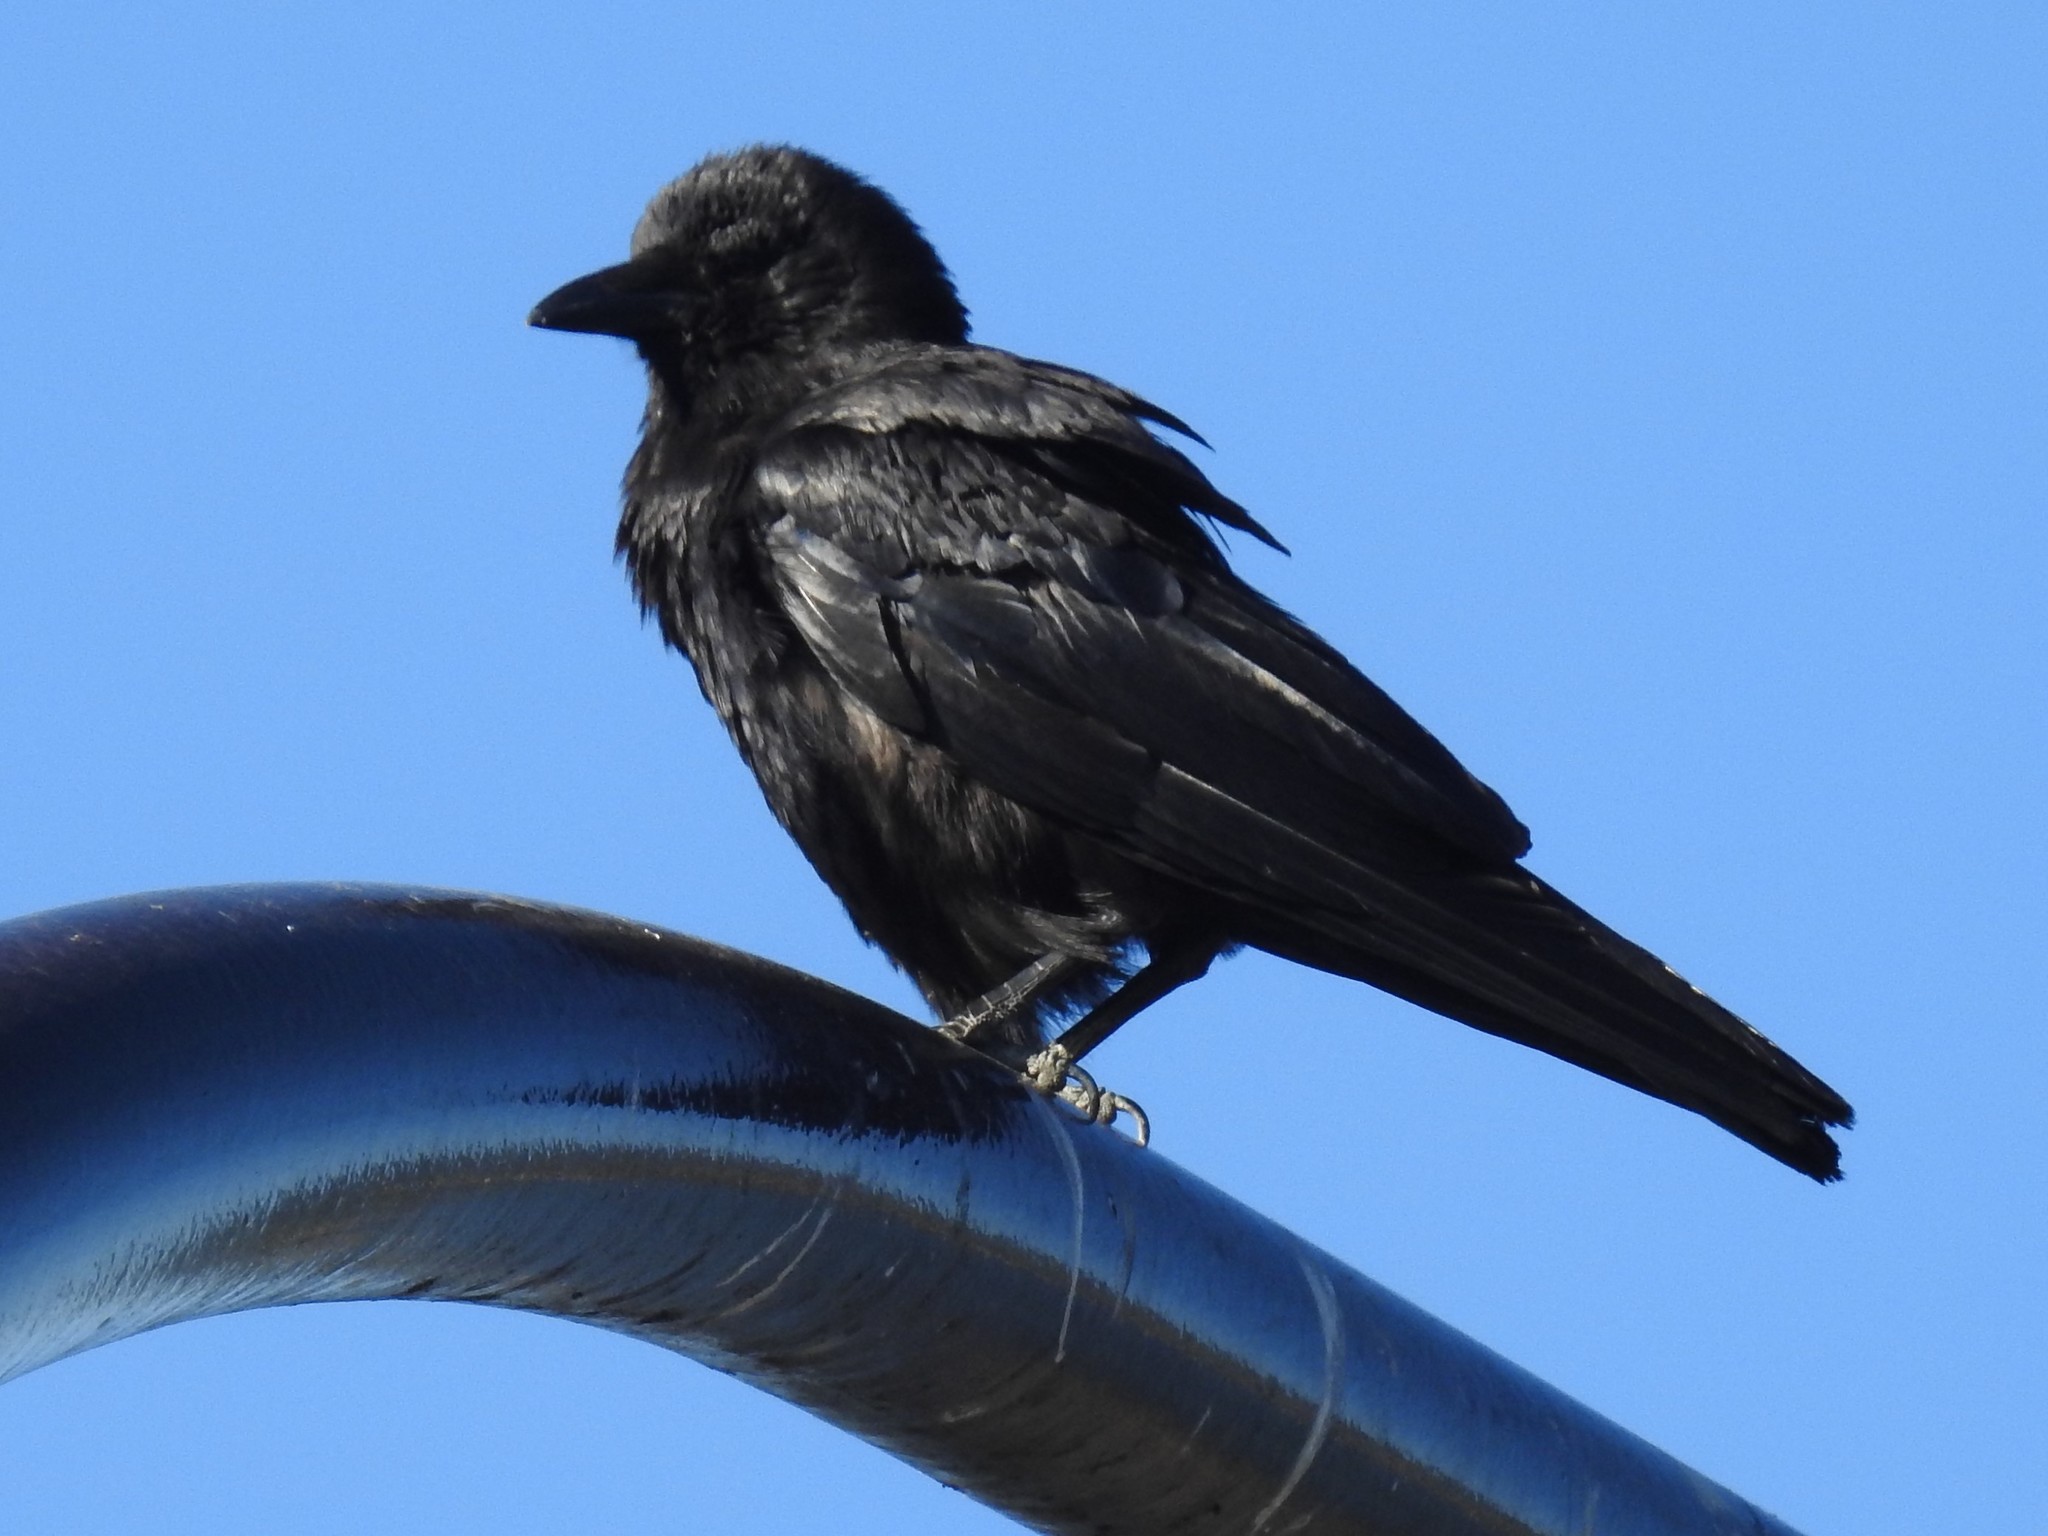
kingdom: Animalia
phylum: Chordata
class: Aves
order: Passeriformes
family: Corvidae
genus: Corvus
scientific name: Corvus brachyrhynchos
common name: American crow
